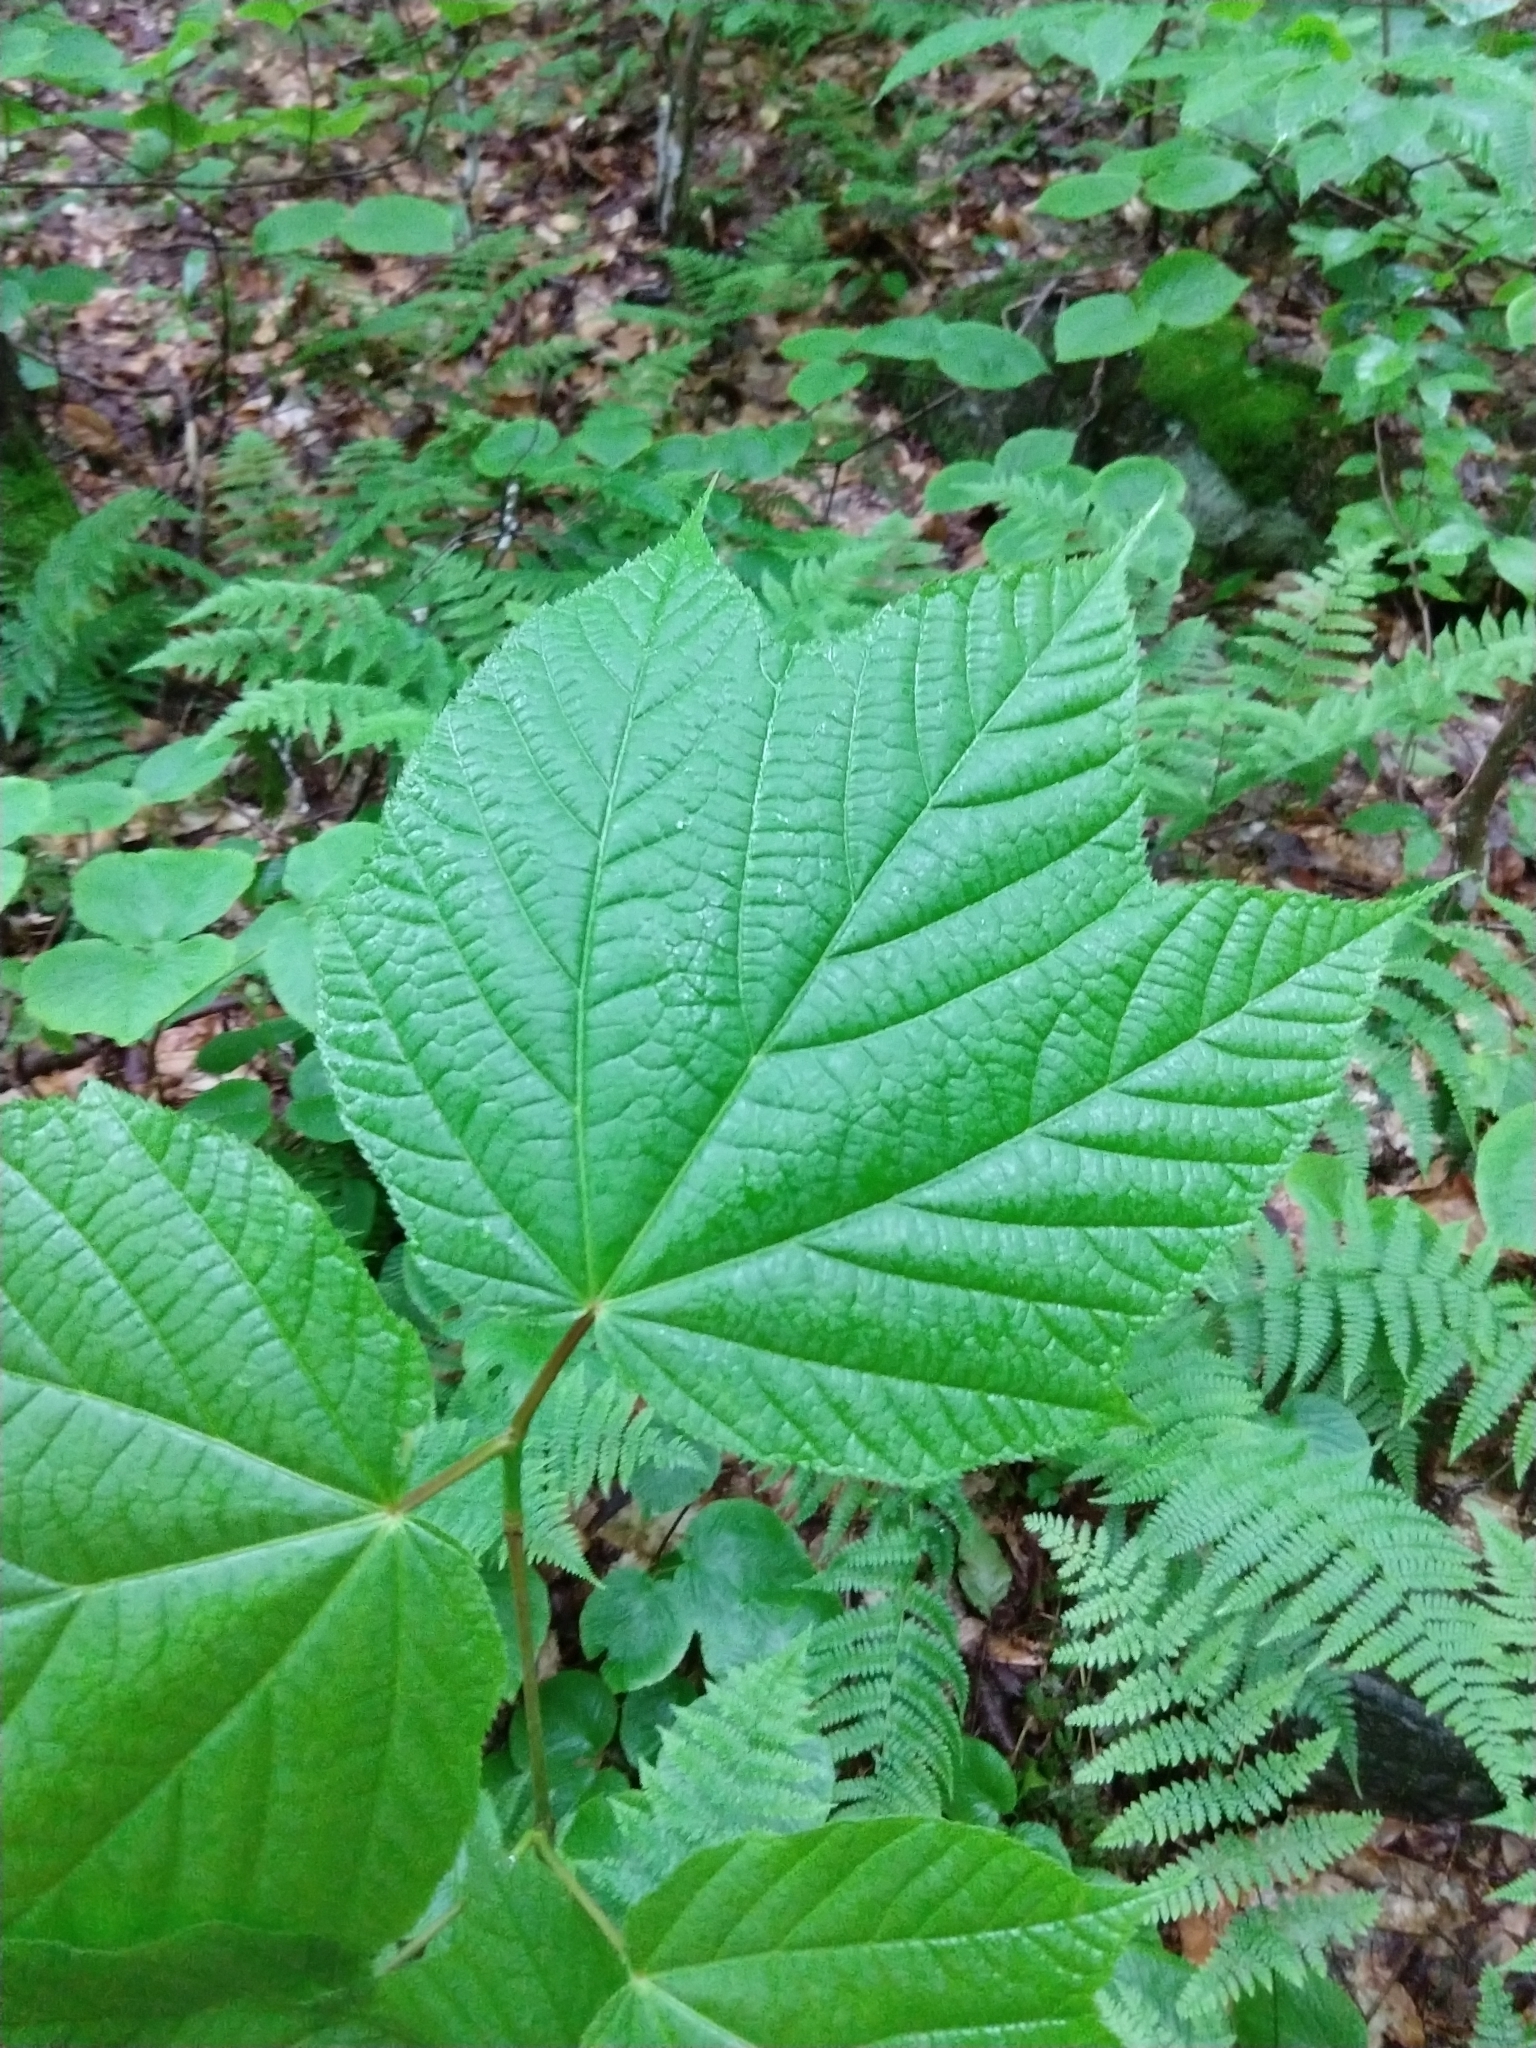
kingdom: Plantae
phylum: Tracheophyta
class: Magnoliopsida
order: Sapindales
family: Sapindaceae
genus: Acer
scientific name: Acer pensylvanicum
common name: Moosewood
